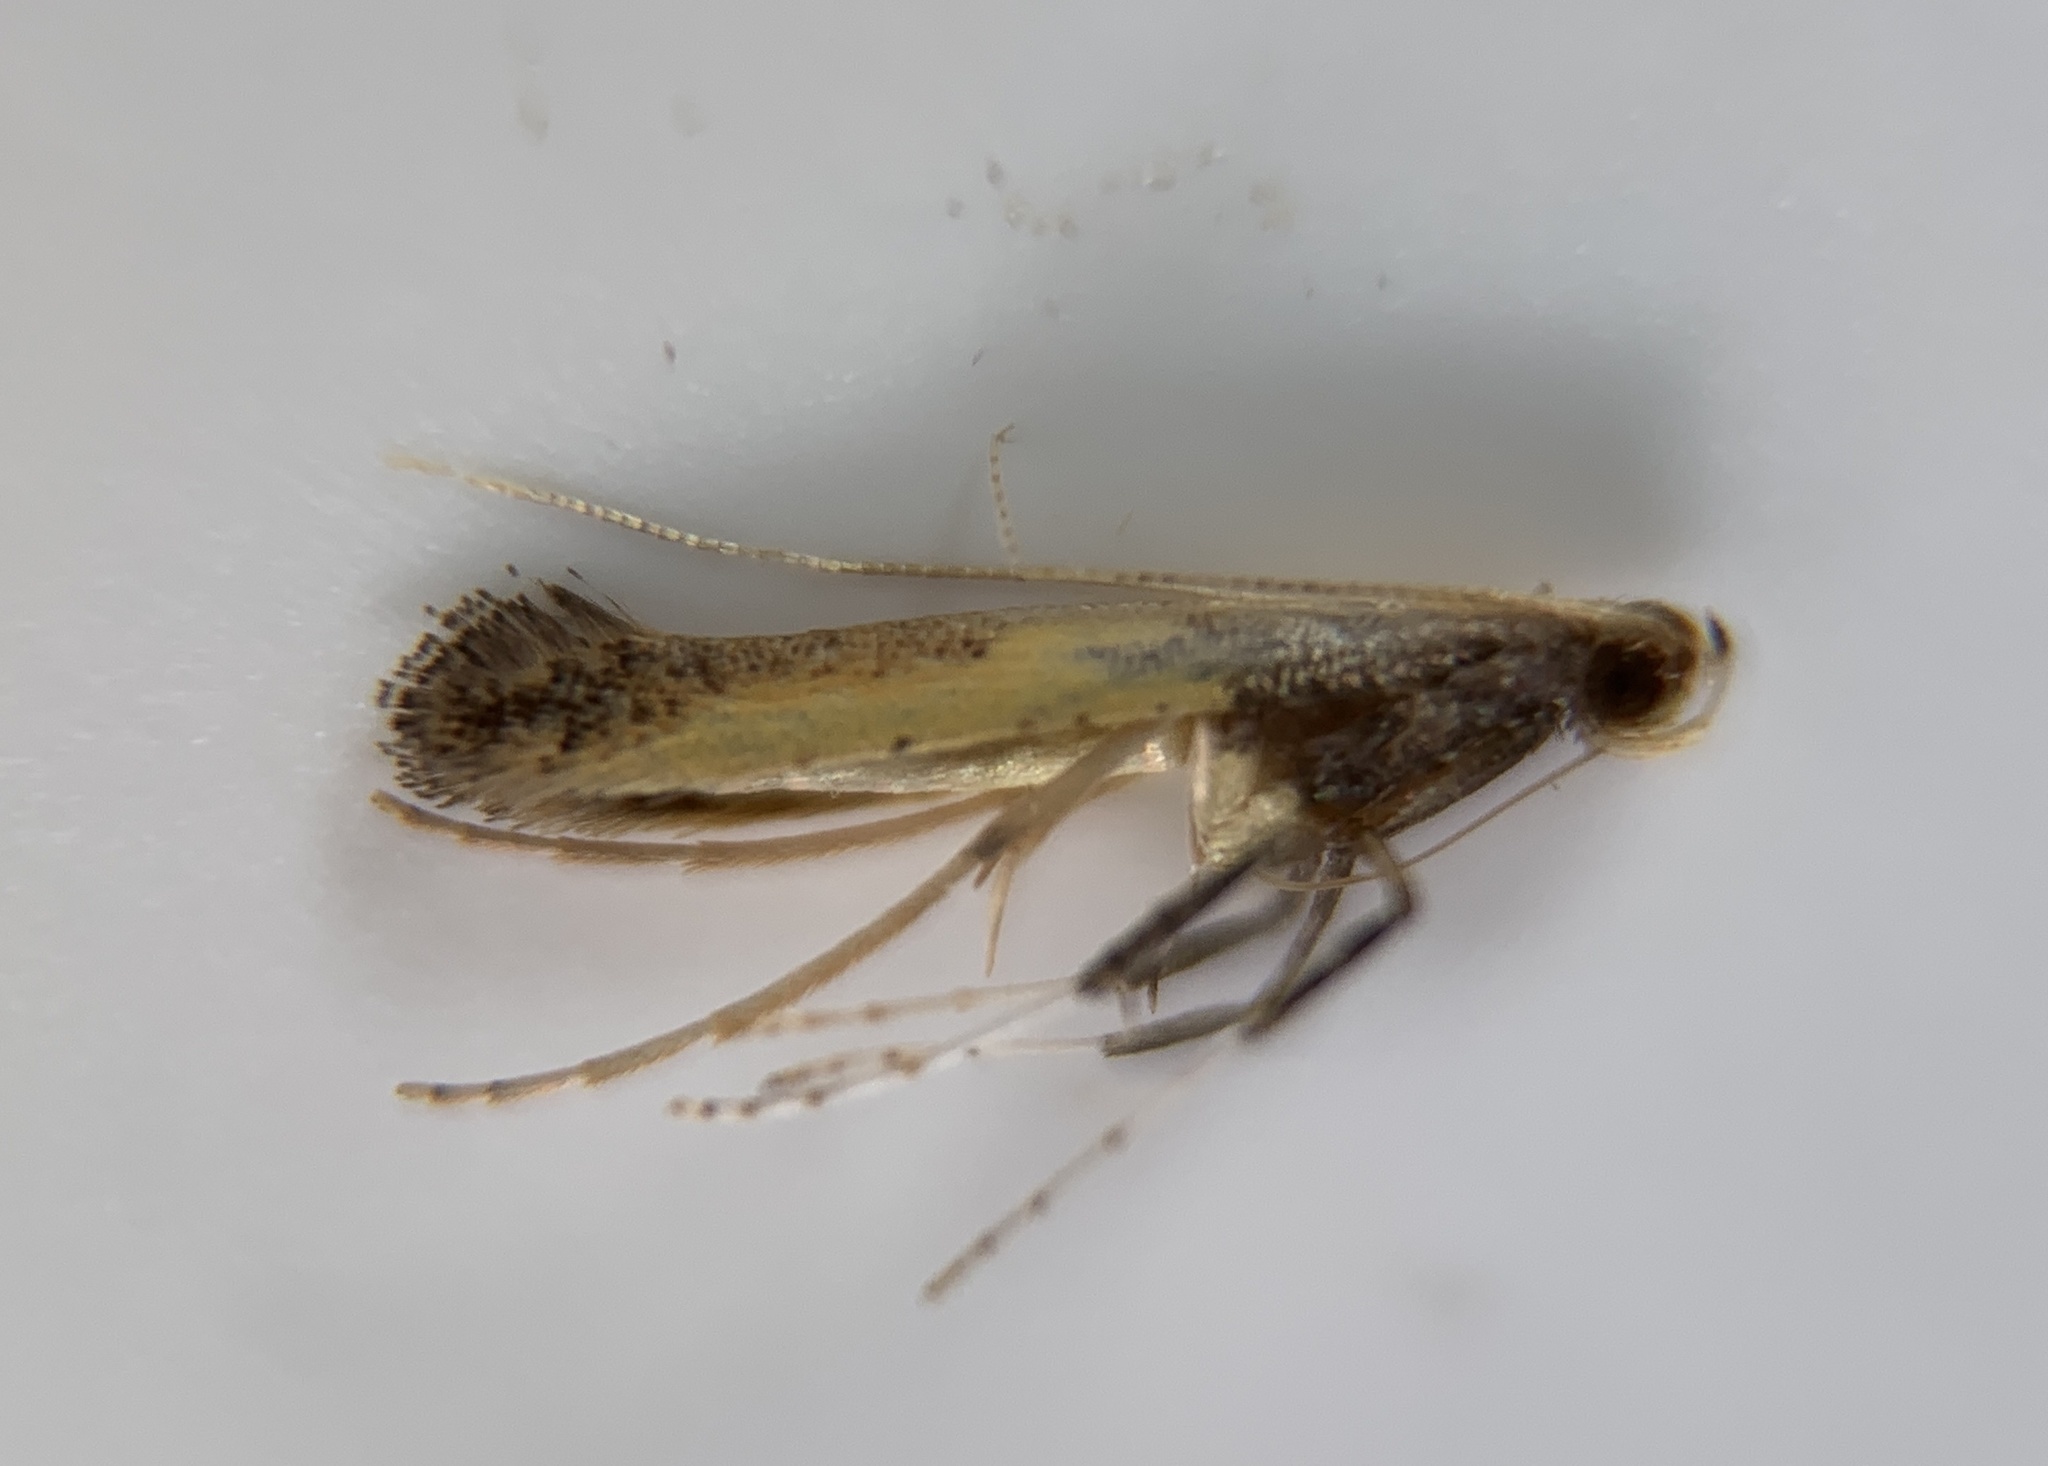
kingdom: Animalia
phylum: Arthropoda
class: Insecta
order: Lepidoptera
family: Gracillariidae
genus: Caloptilia
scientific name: Caloptilia azaleella
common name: Azalea leafminer
